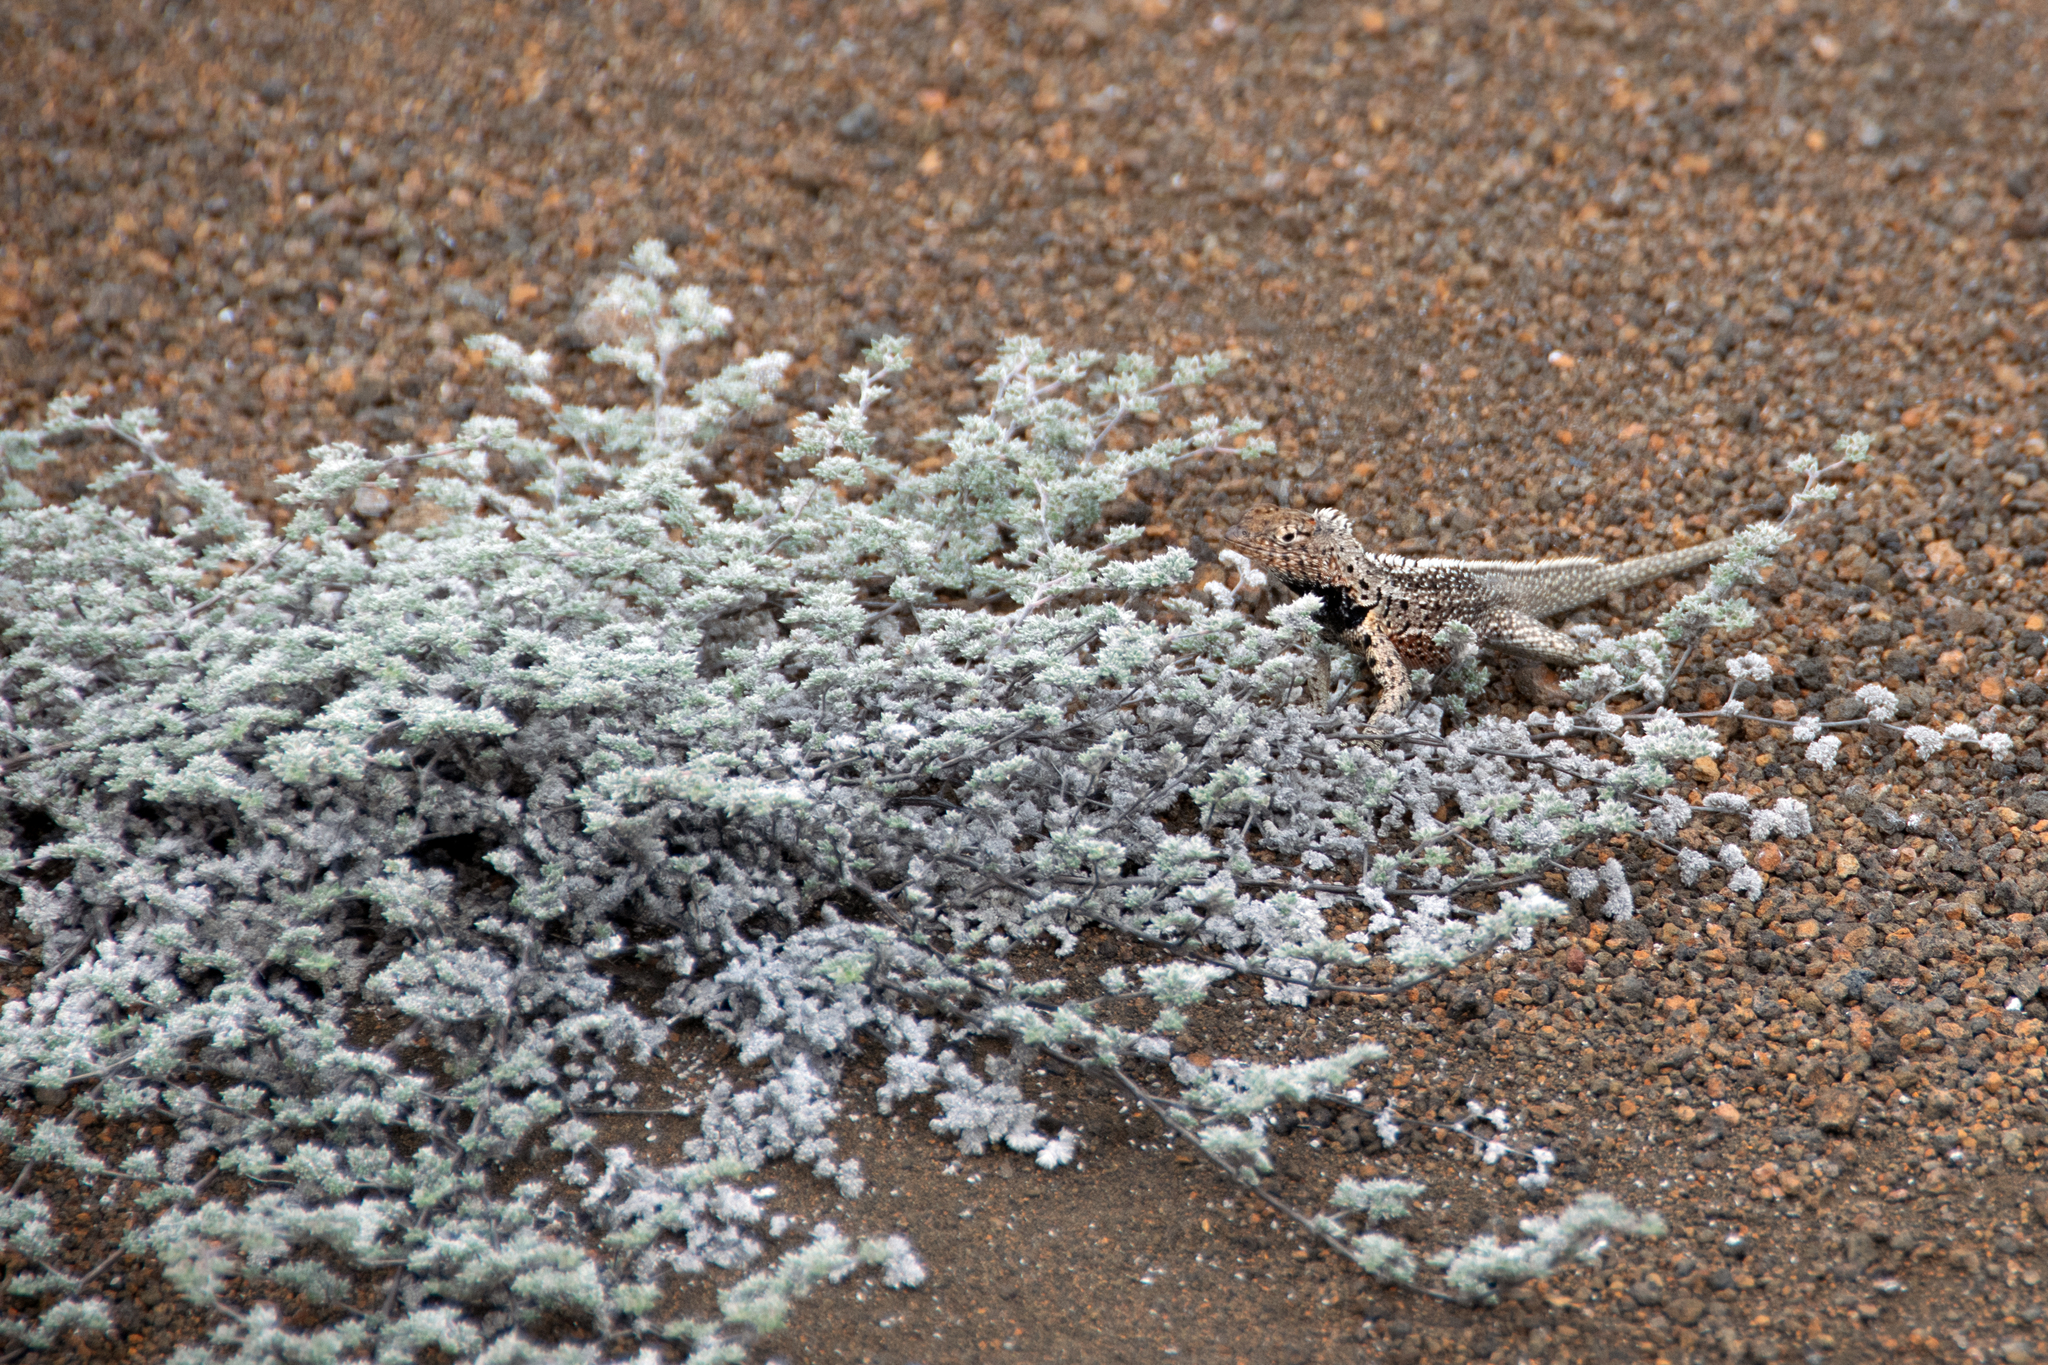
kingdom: Animalia
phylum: Chordata
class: Squamata
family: Tropiduridae
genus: Microlophus
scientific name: Microlophus jacobii
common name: Santiago lava lizard
